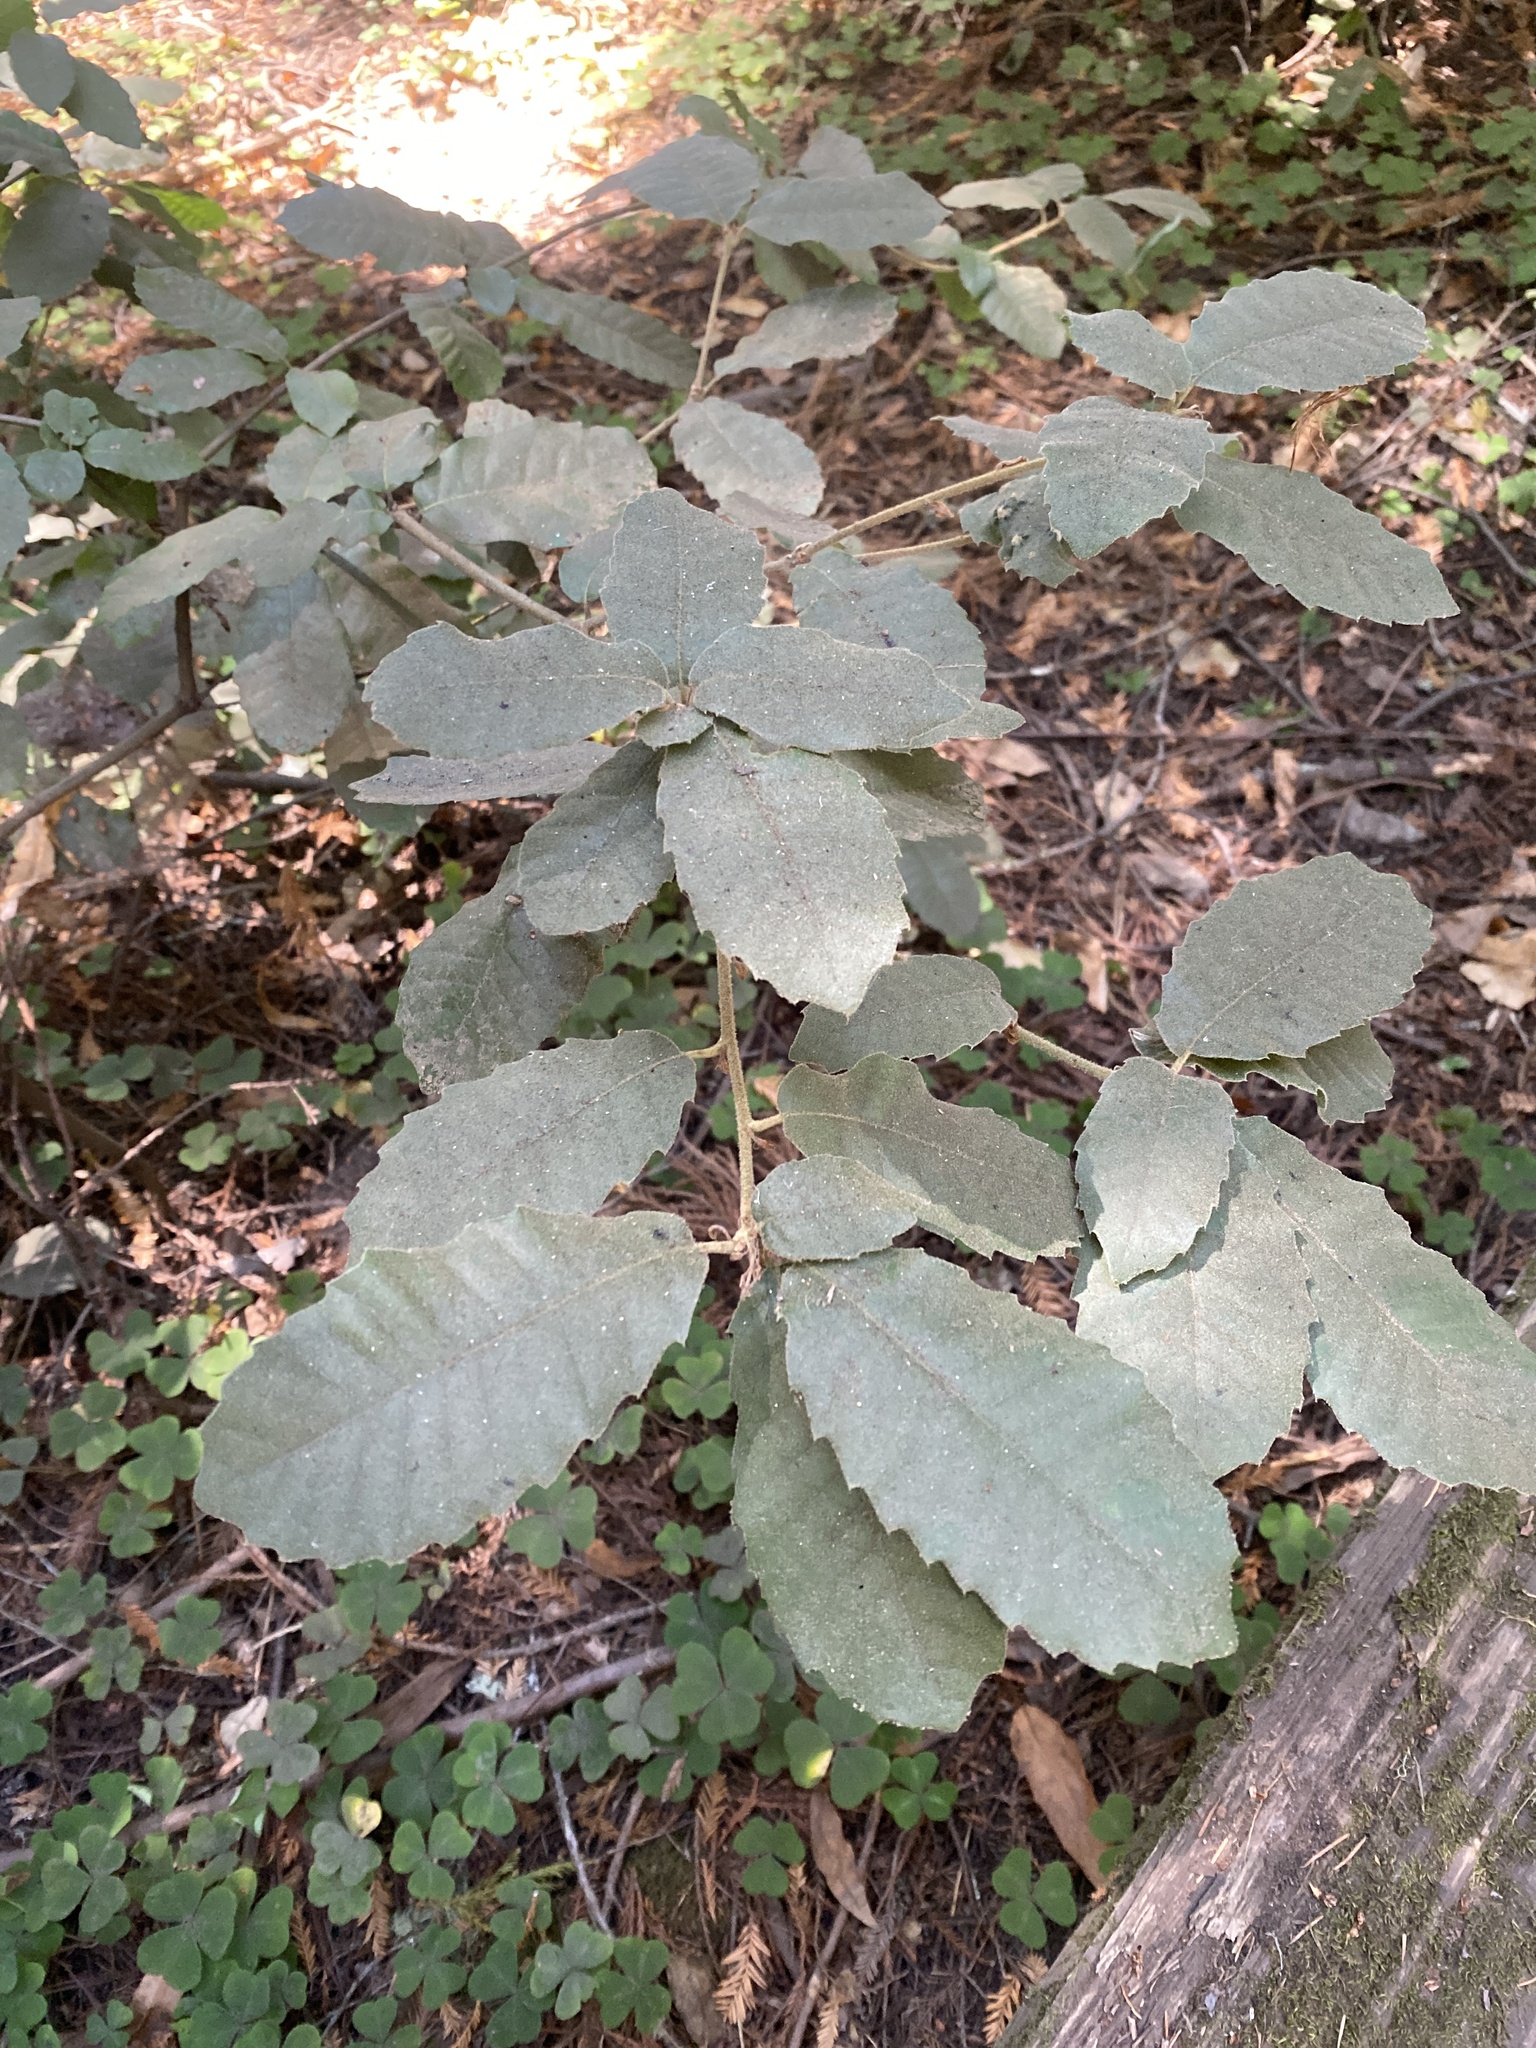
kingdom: Plantae
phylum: Tracheophyta
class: Magnoliopsida
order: Fagales
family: Fagaceae
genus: Notholithocarpus
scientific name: Notholithocarpus densiflorus
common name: Tan bark oak
